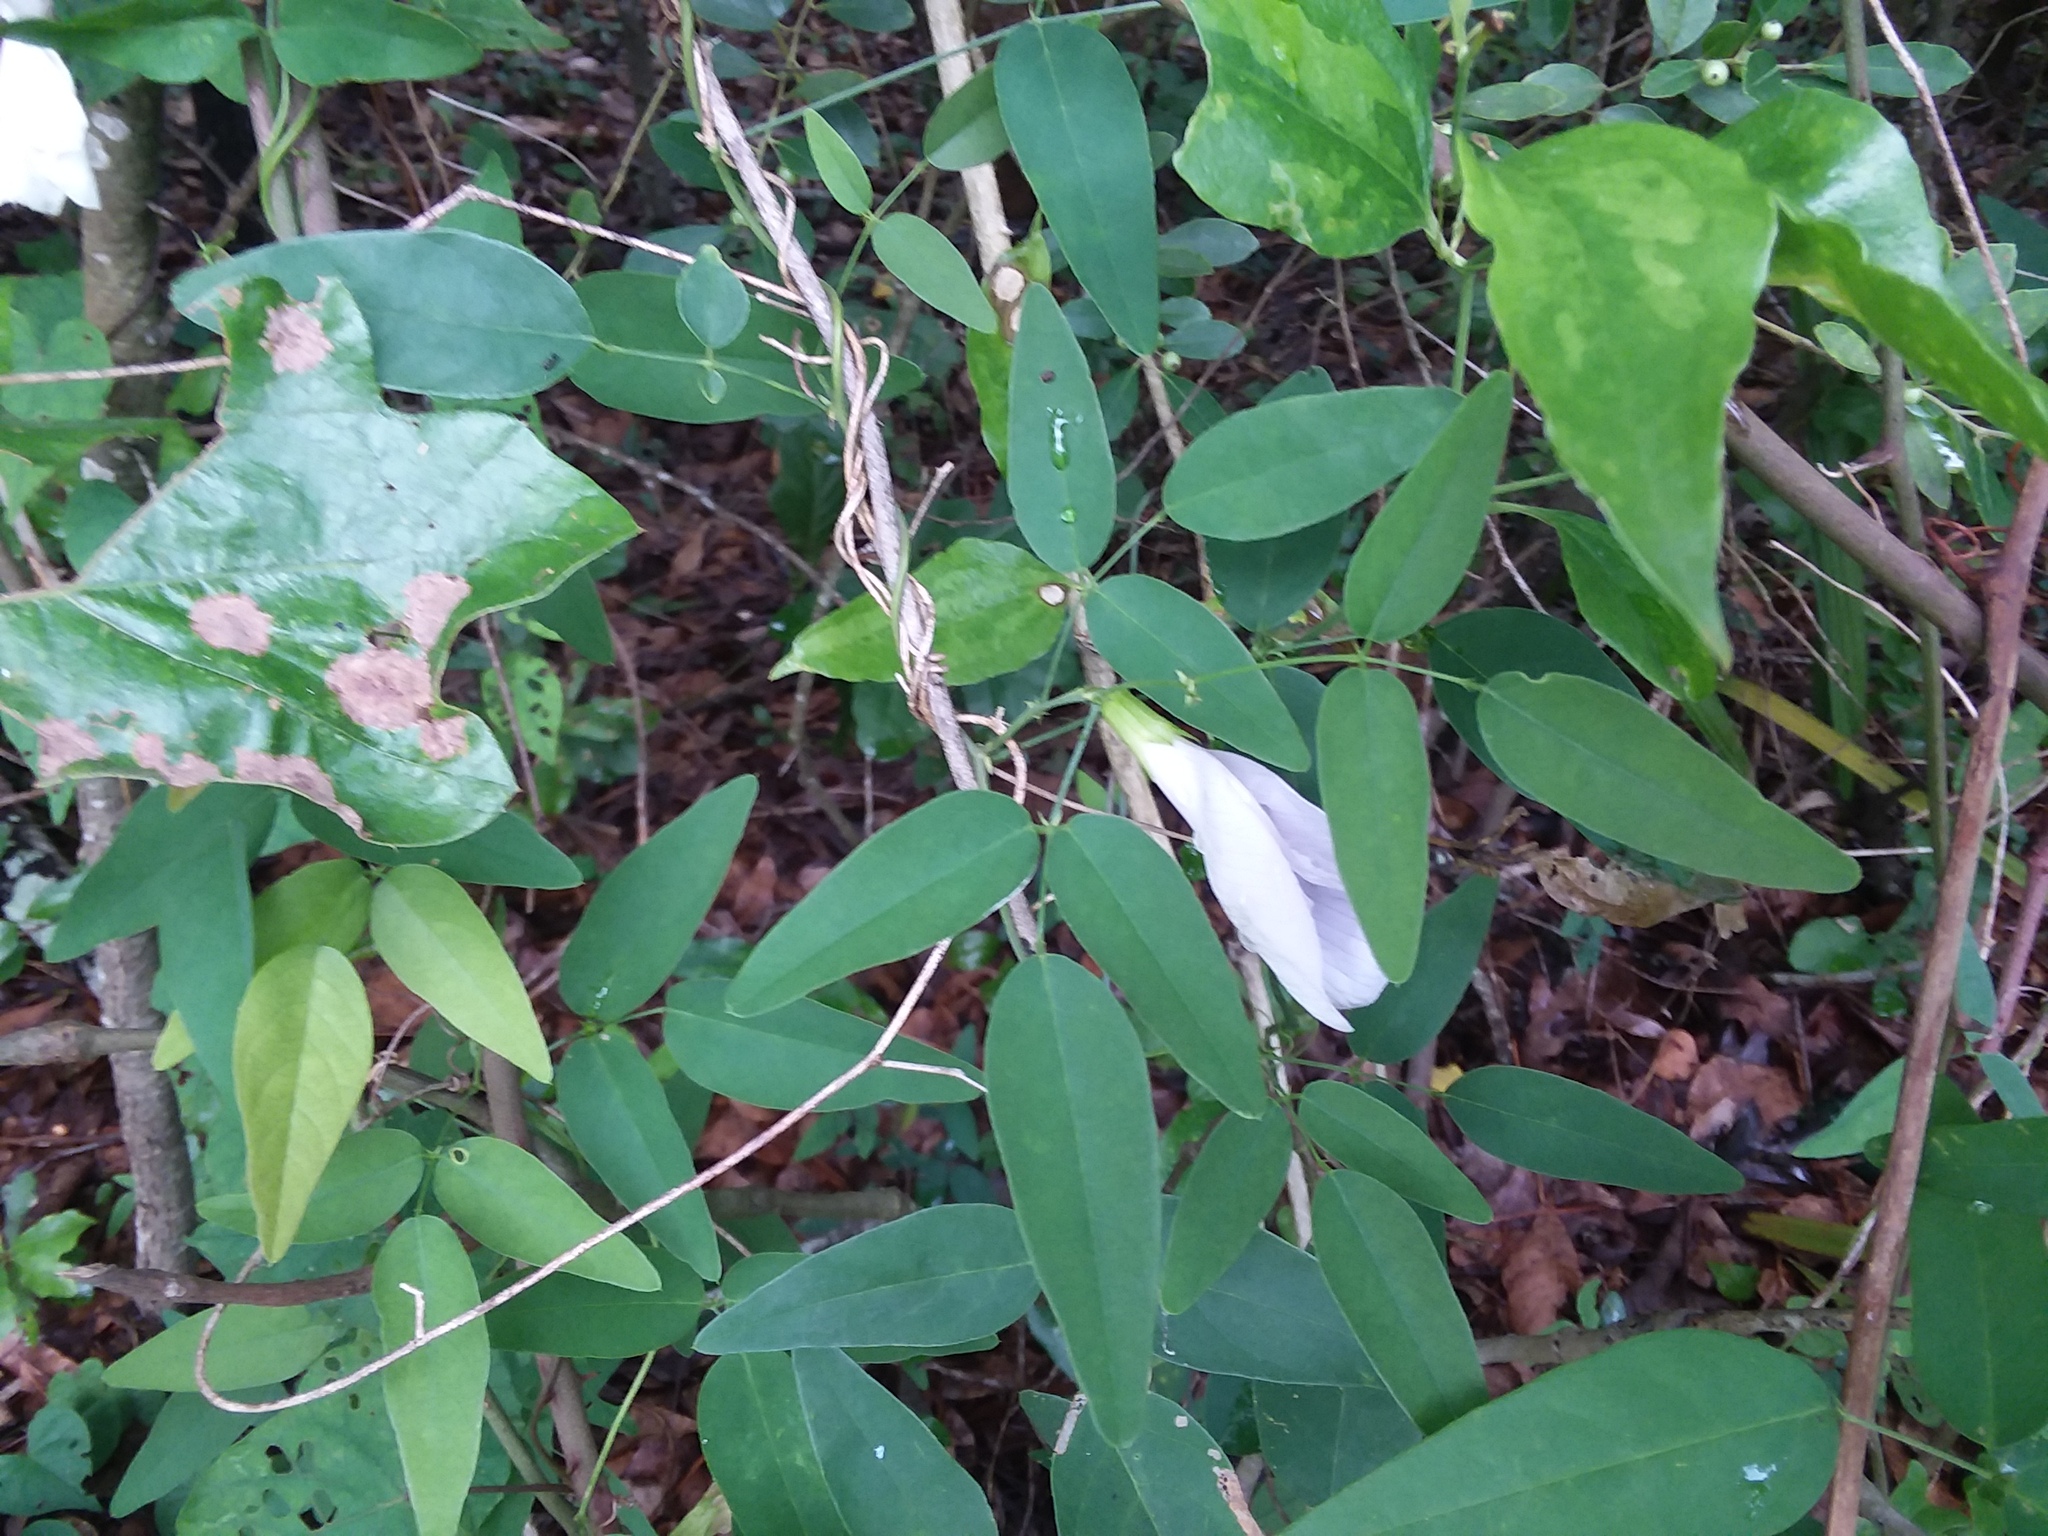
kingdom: Plantae
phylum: Tracheophyta
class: Magnoliopsida
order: Fabales
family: Fabaceae
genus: Clitoria
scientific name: Clitoria mariana
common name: Butterfly-pea
